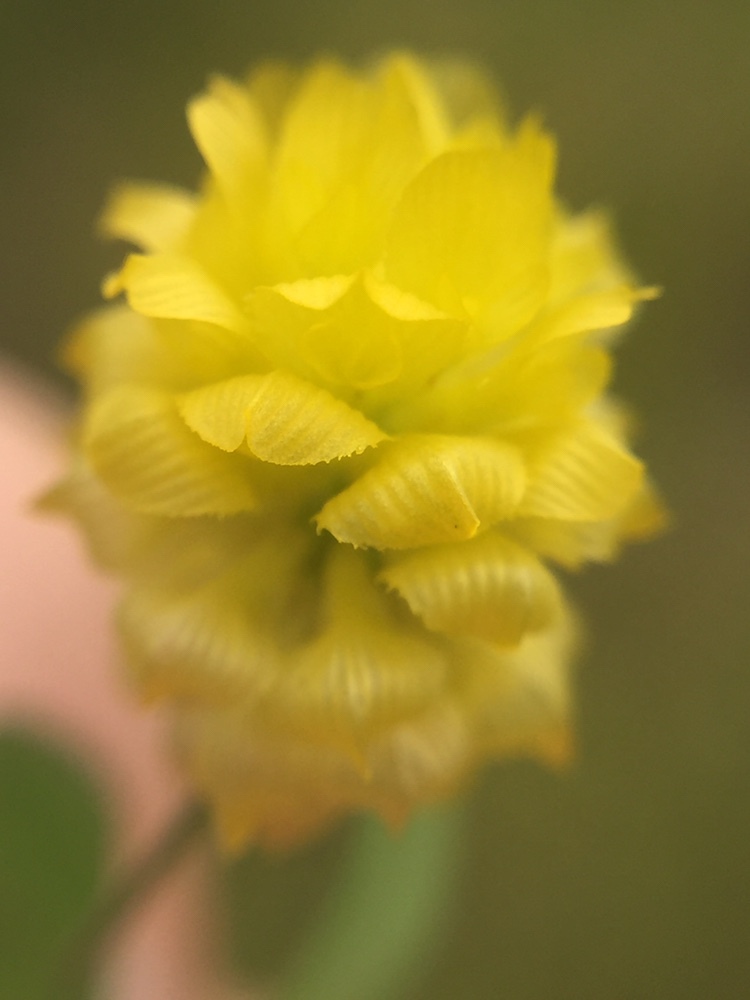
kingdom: Plantae
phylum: Tracheophyta
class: Magnoliopsida
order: Fabales
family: Fabaceae
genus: Trifolium
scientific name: Trifolium campestre
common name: Field clover
